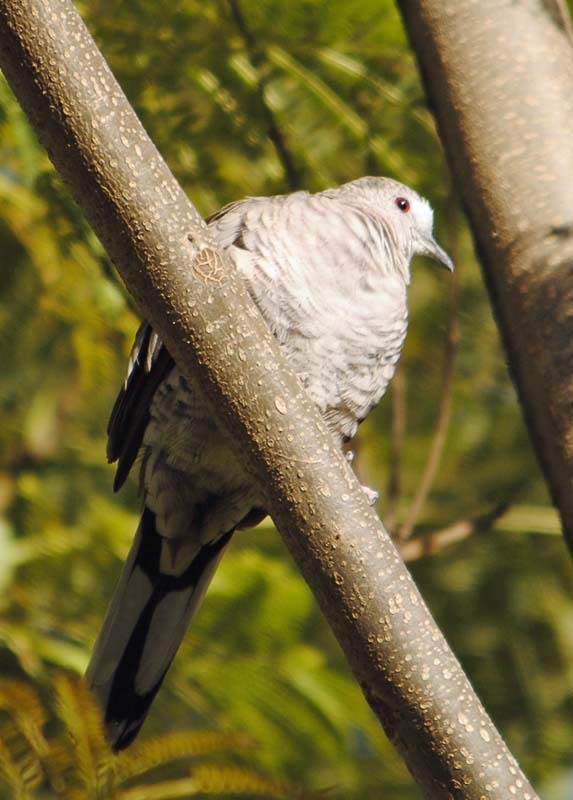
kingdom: Animalia
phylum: Chordata
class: Aves
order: Columbiformes
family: Columbidae
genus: Columbina
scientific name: Columbina inca
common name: Inca dove
